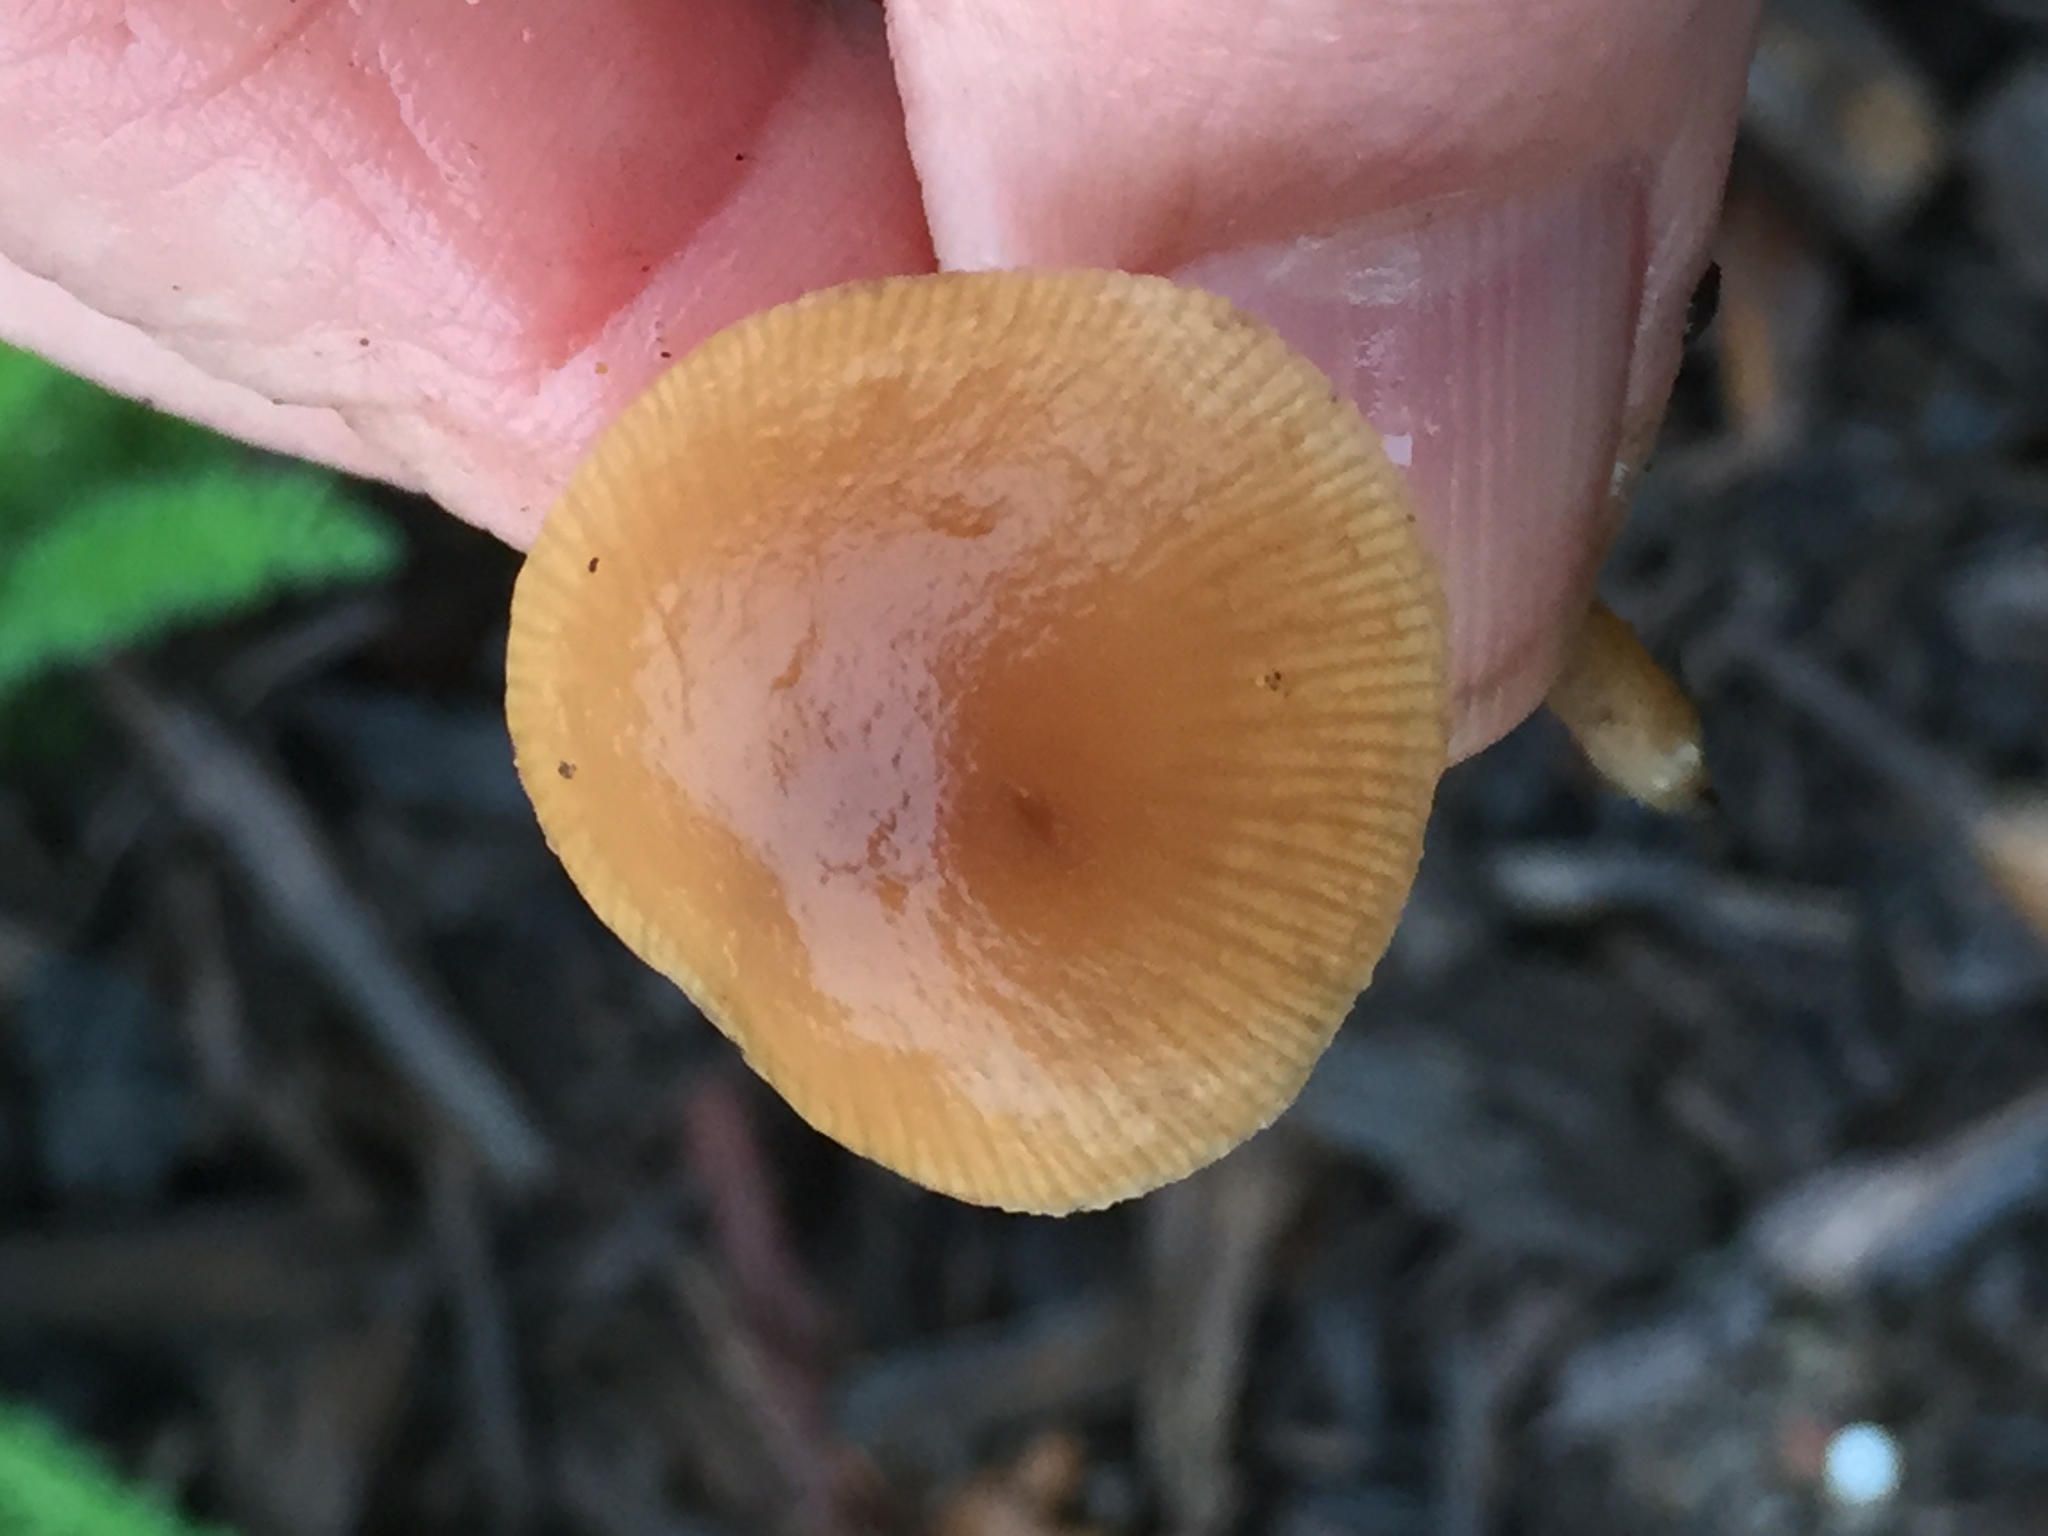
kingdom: Fungi
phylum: Basidiomycota
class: Agaricomycetes
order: Agaricales
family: Tubariaceae
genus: Tubaria
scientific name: Tubaria furfuracea
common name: Scurfy twiglet
